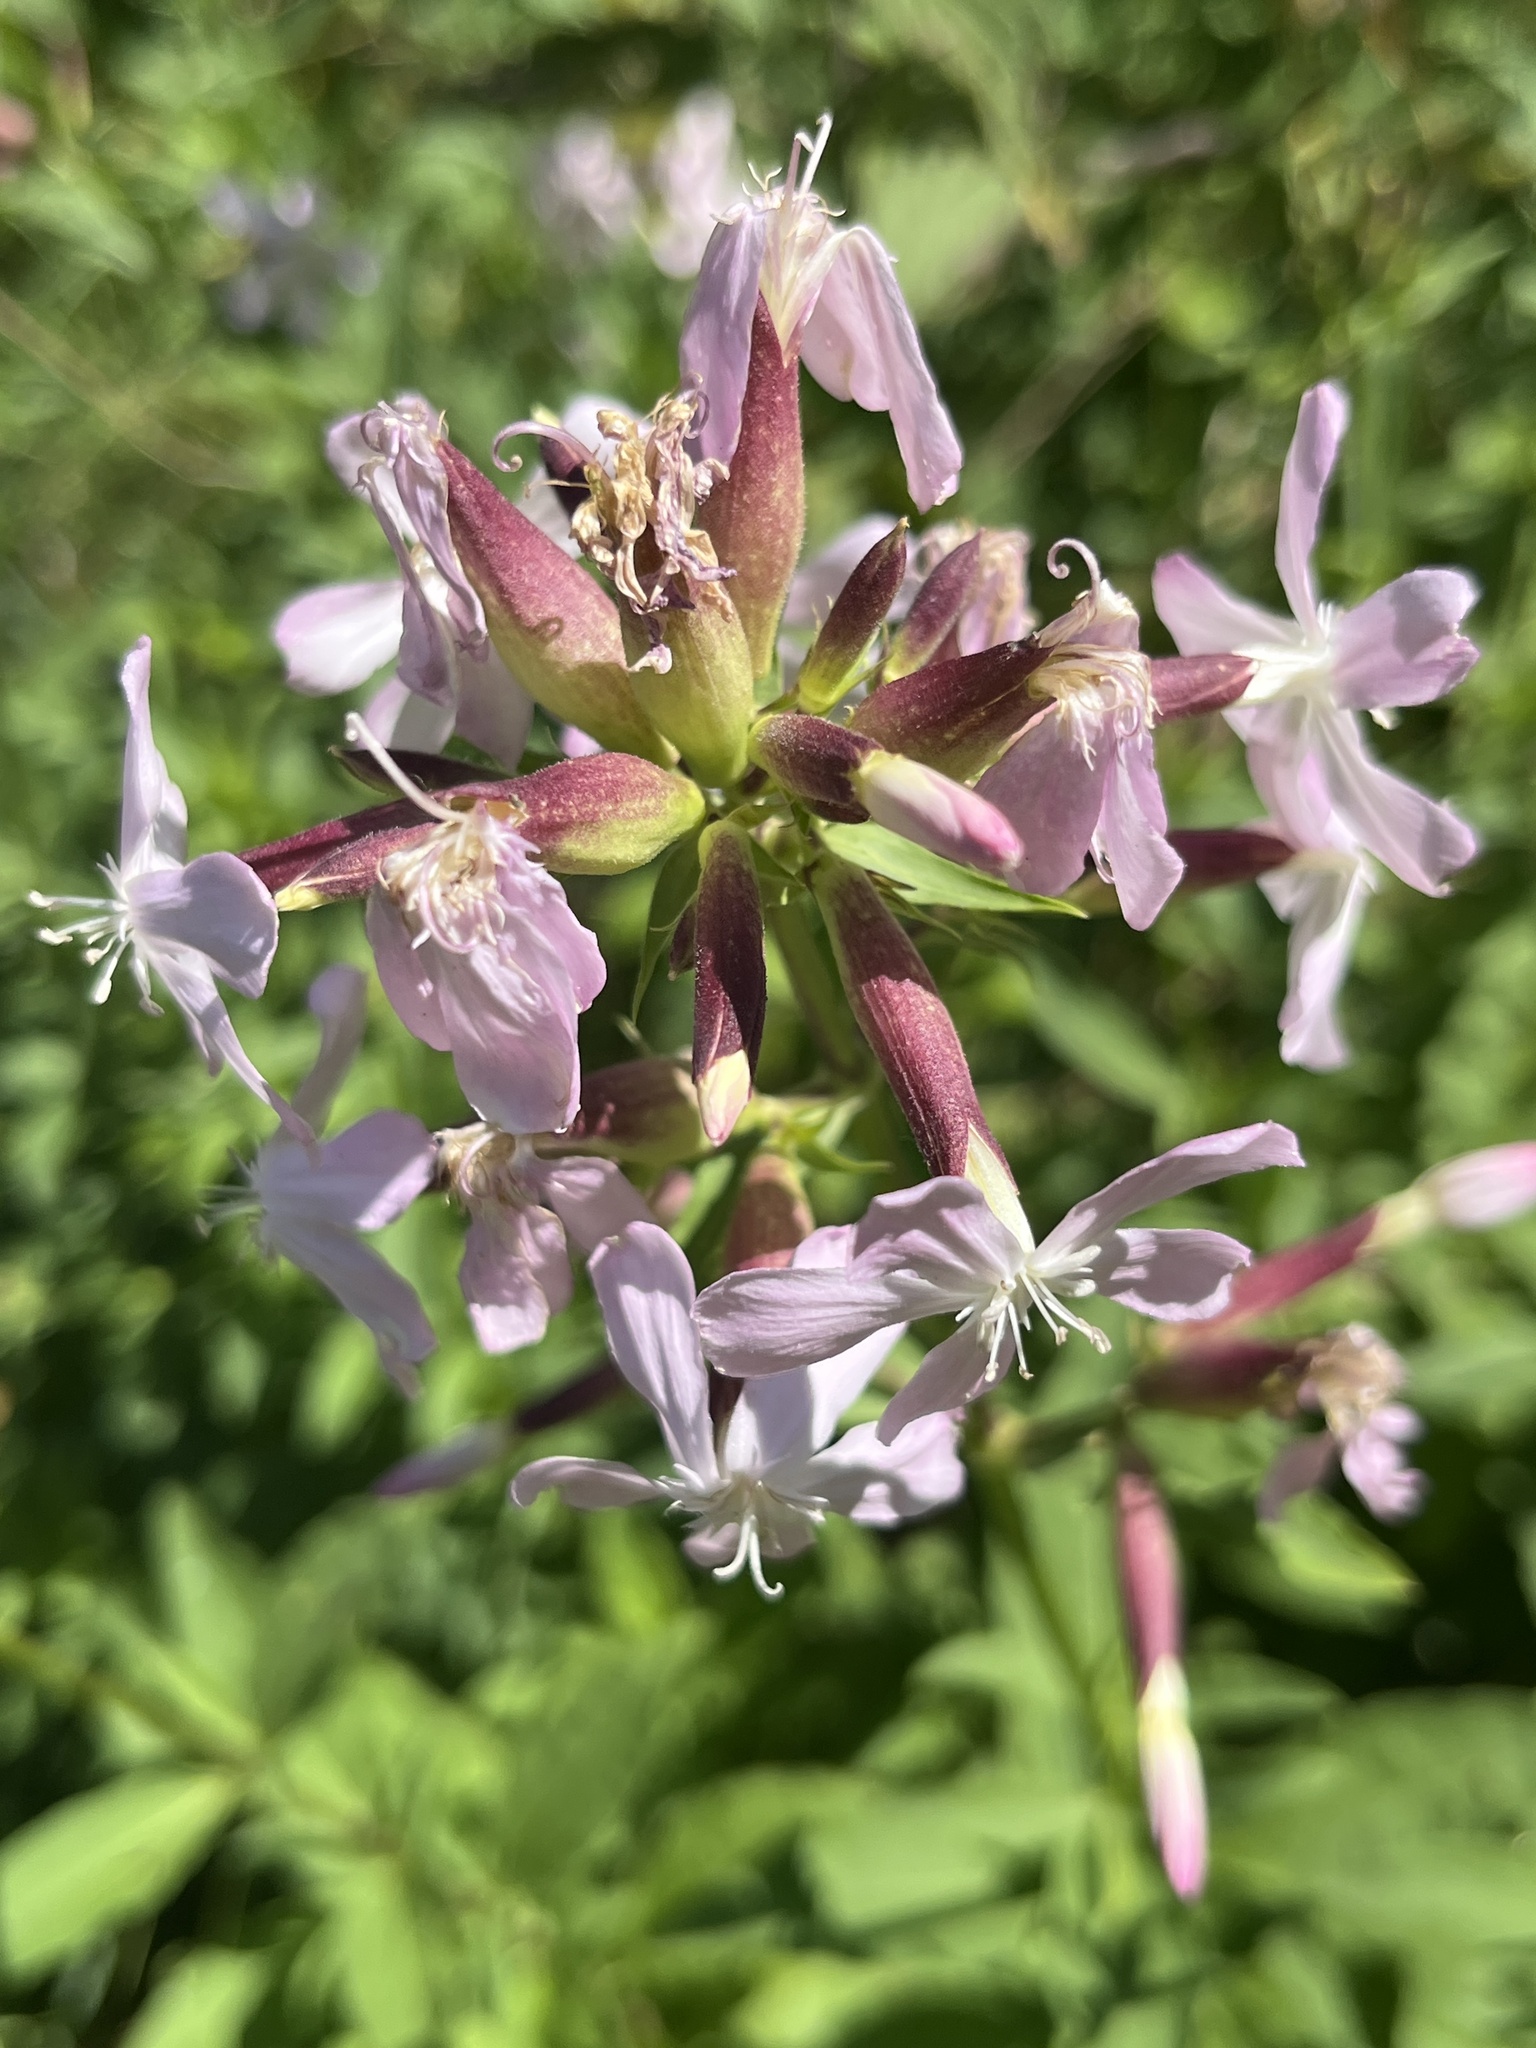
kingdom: Plantae
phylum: Tracheophyta
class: Magnoliopsida
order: Caryophyllales
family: Caryophyllaceae
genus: Saponaria
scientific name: Saponaria officinalis
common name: Soapwort
